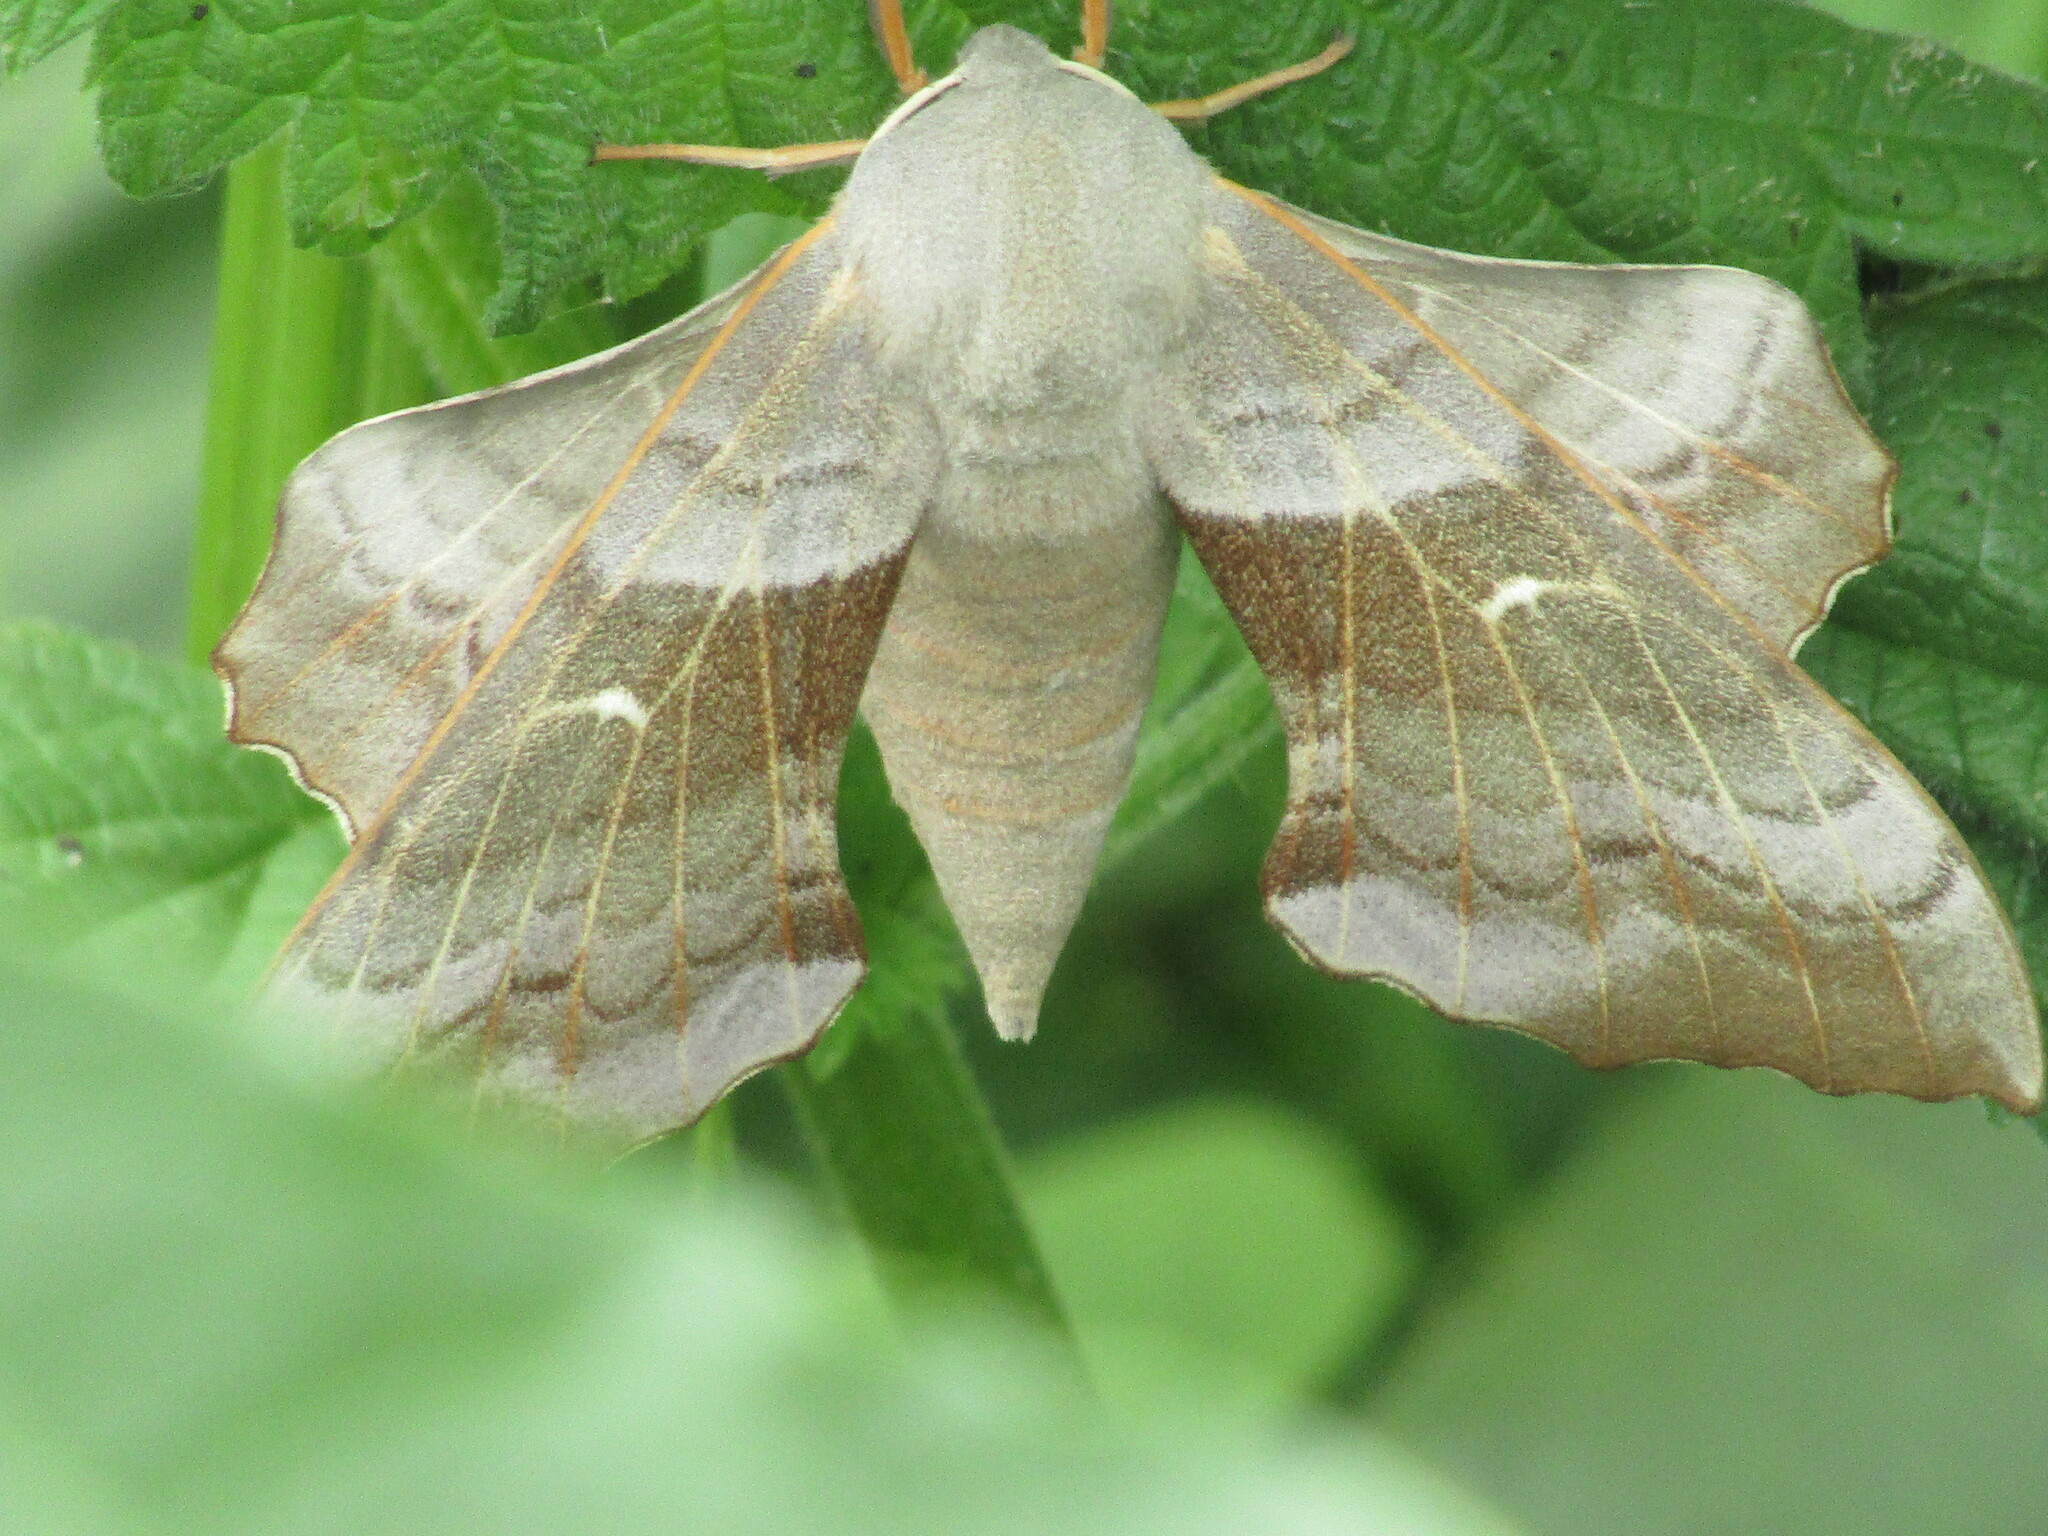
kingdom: Animalia
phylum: Arthropoda
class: Insecta
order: Lepidoptera
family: Sphingidae
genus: Laothoe
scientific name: Laothoe populi
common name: Poplar hawk-moth
